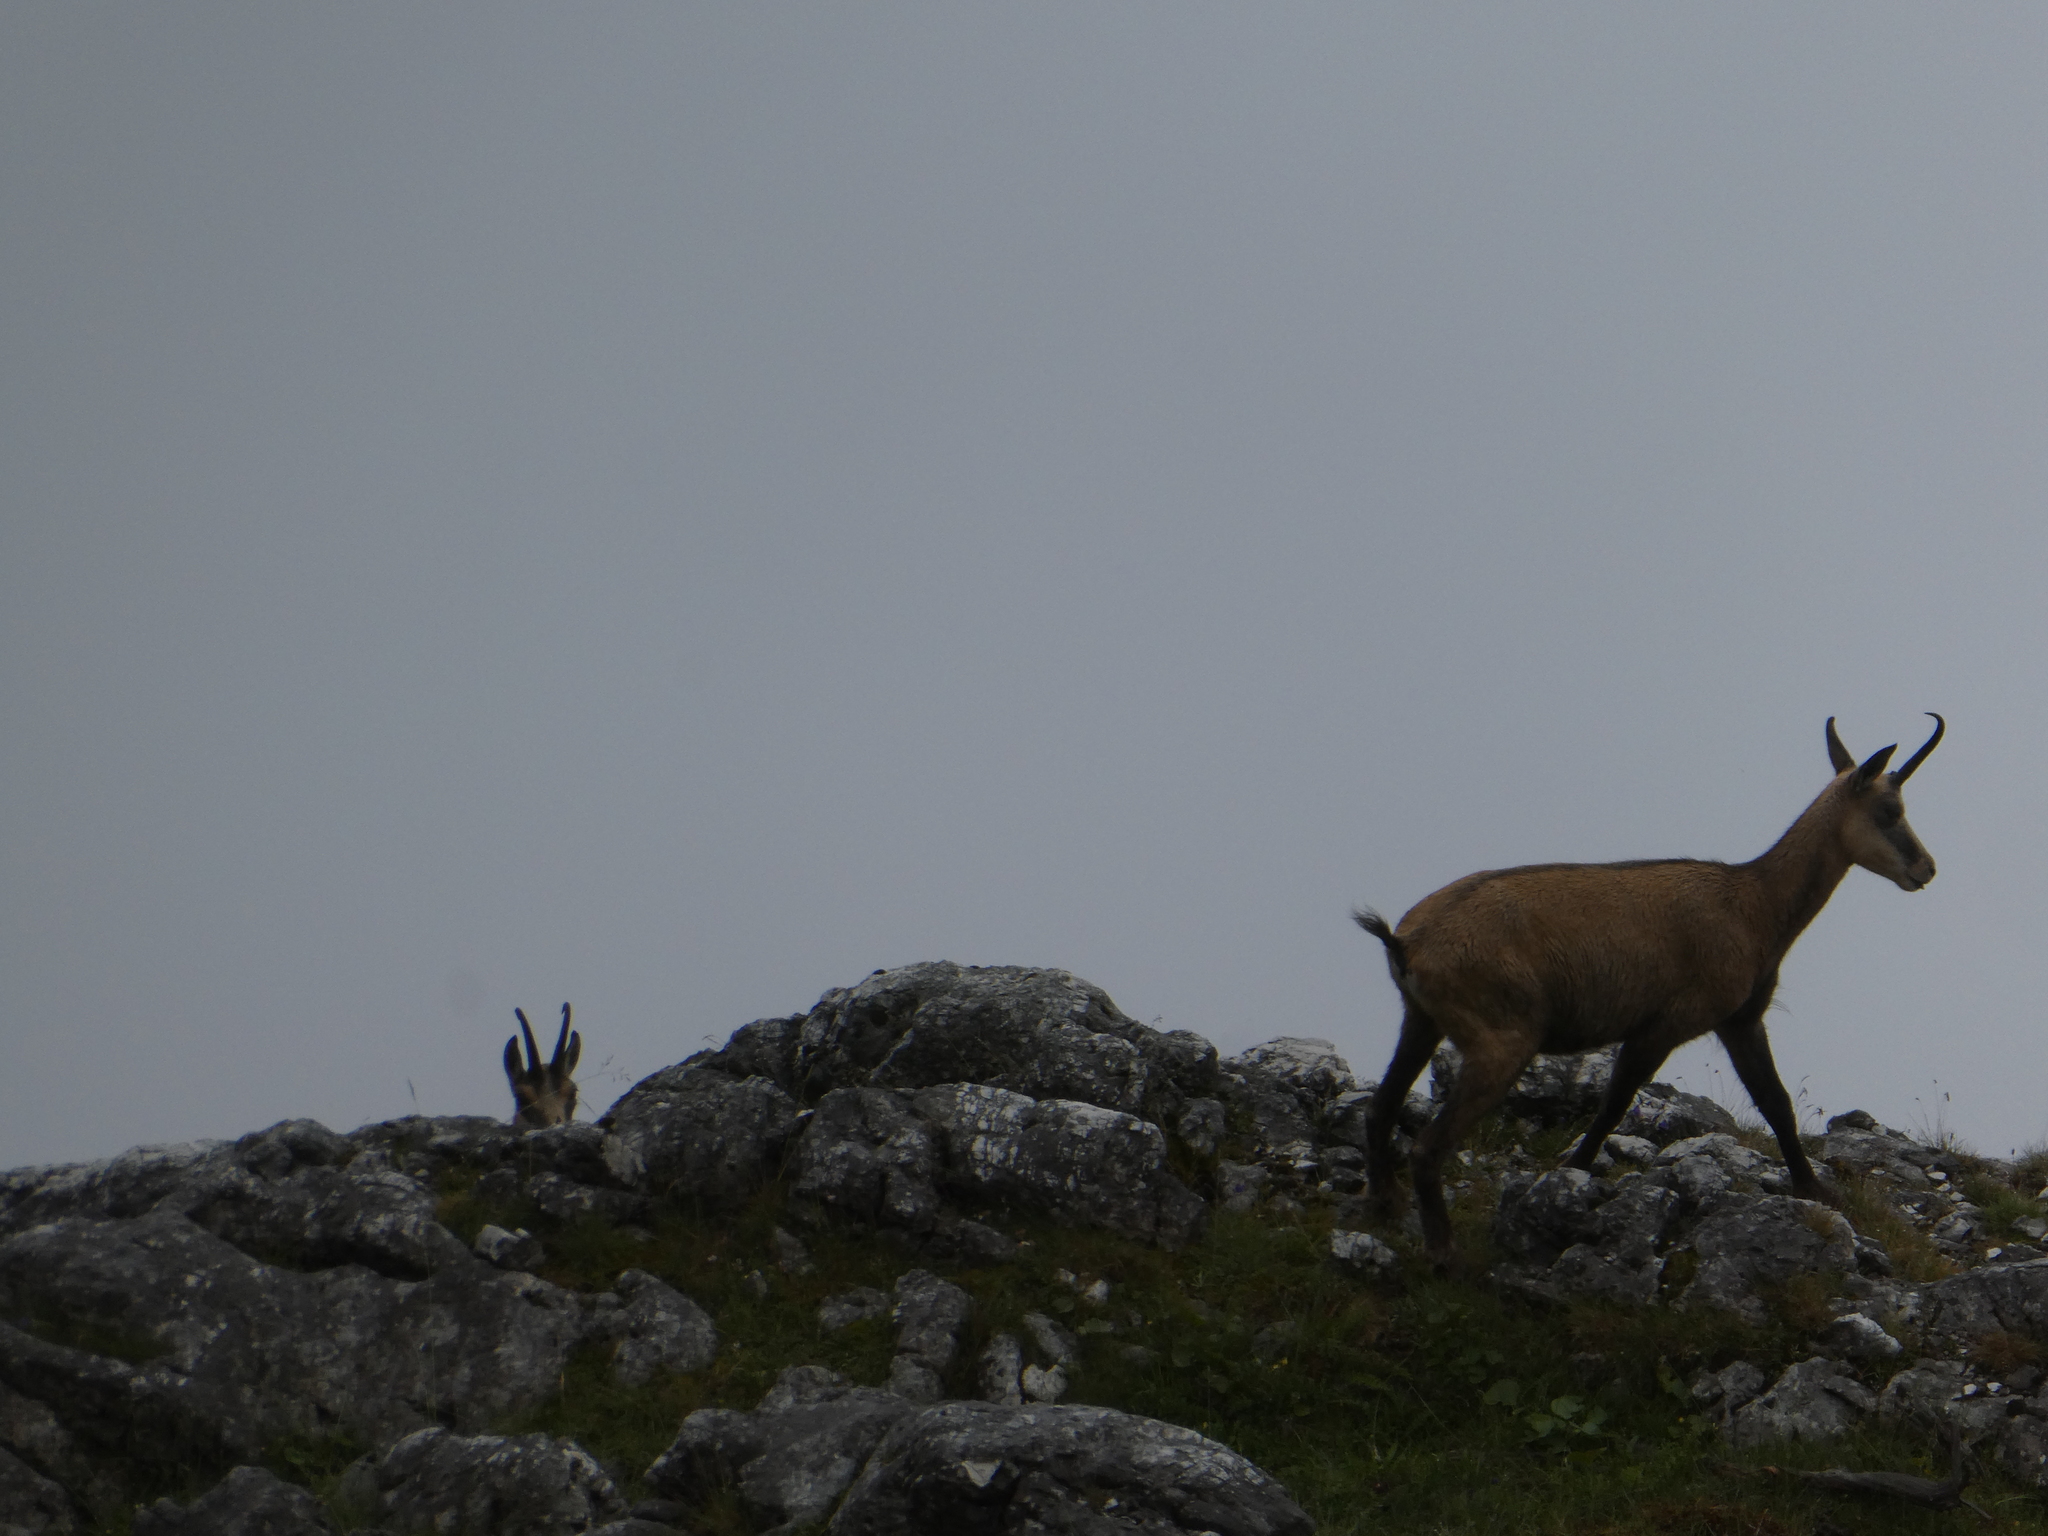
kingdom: Animalia
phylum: Chordata
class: Mammalia
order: Artiodactyla
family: Bovidae
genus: Rupicapra
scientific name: Rupicapra rupicapra
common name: Chamois
